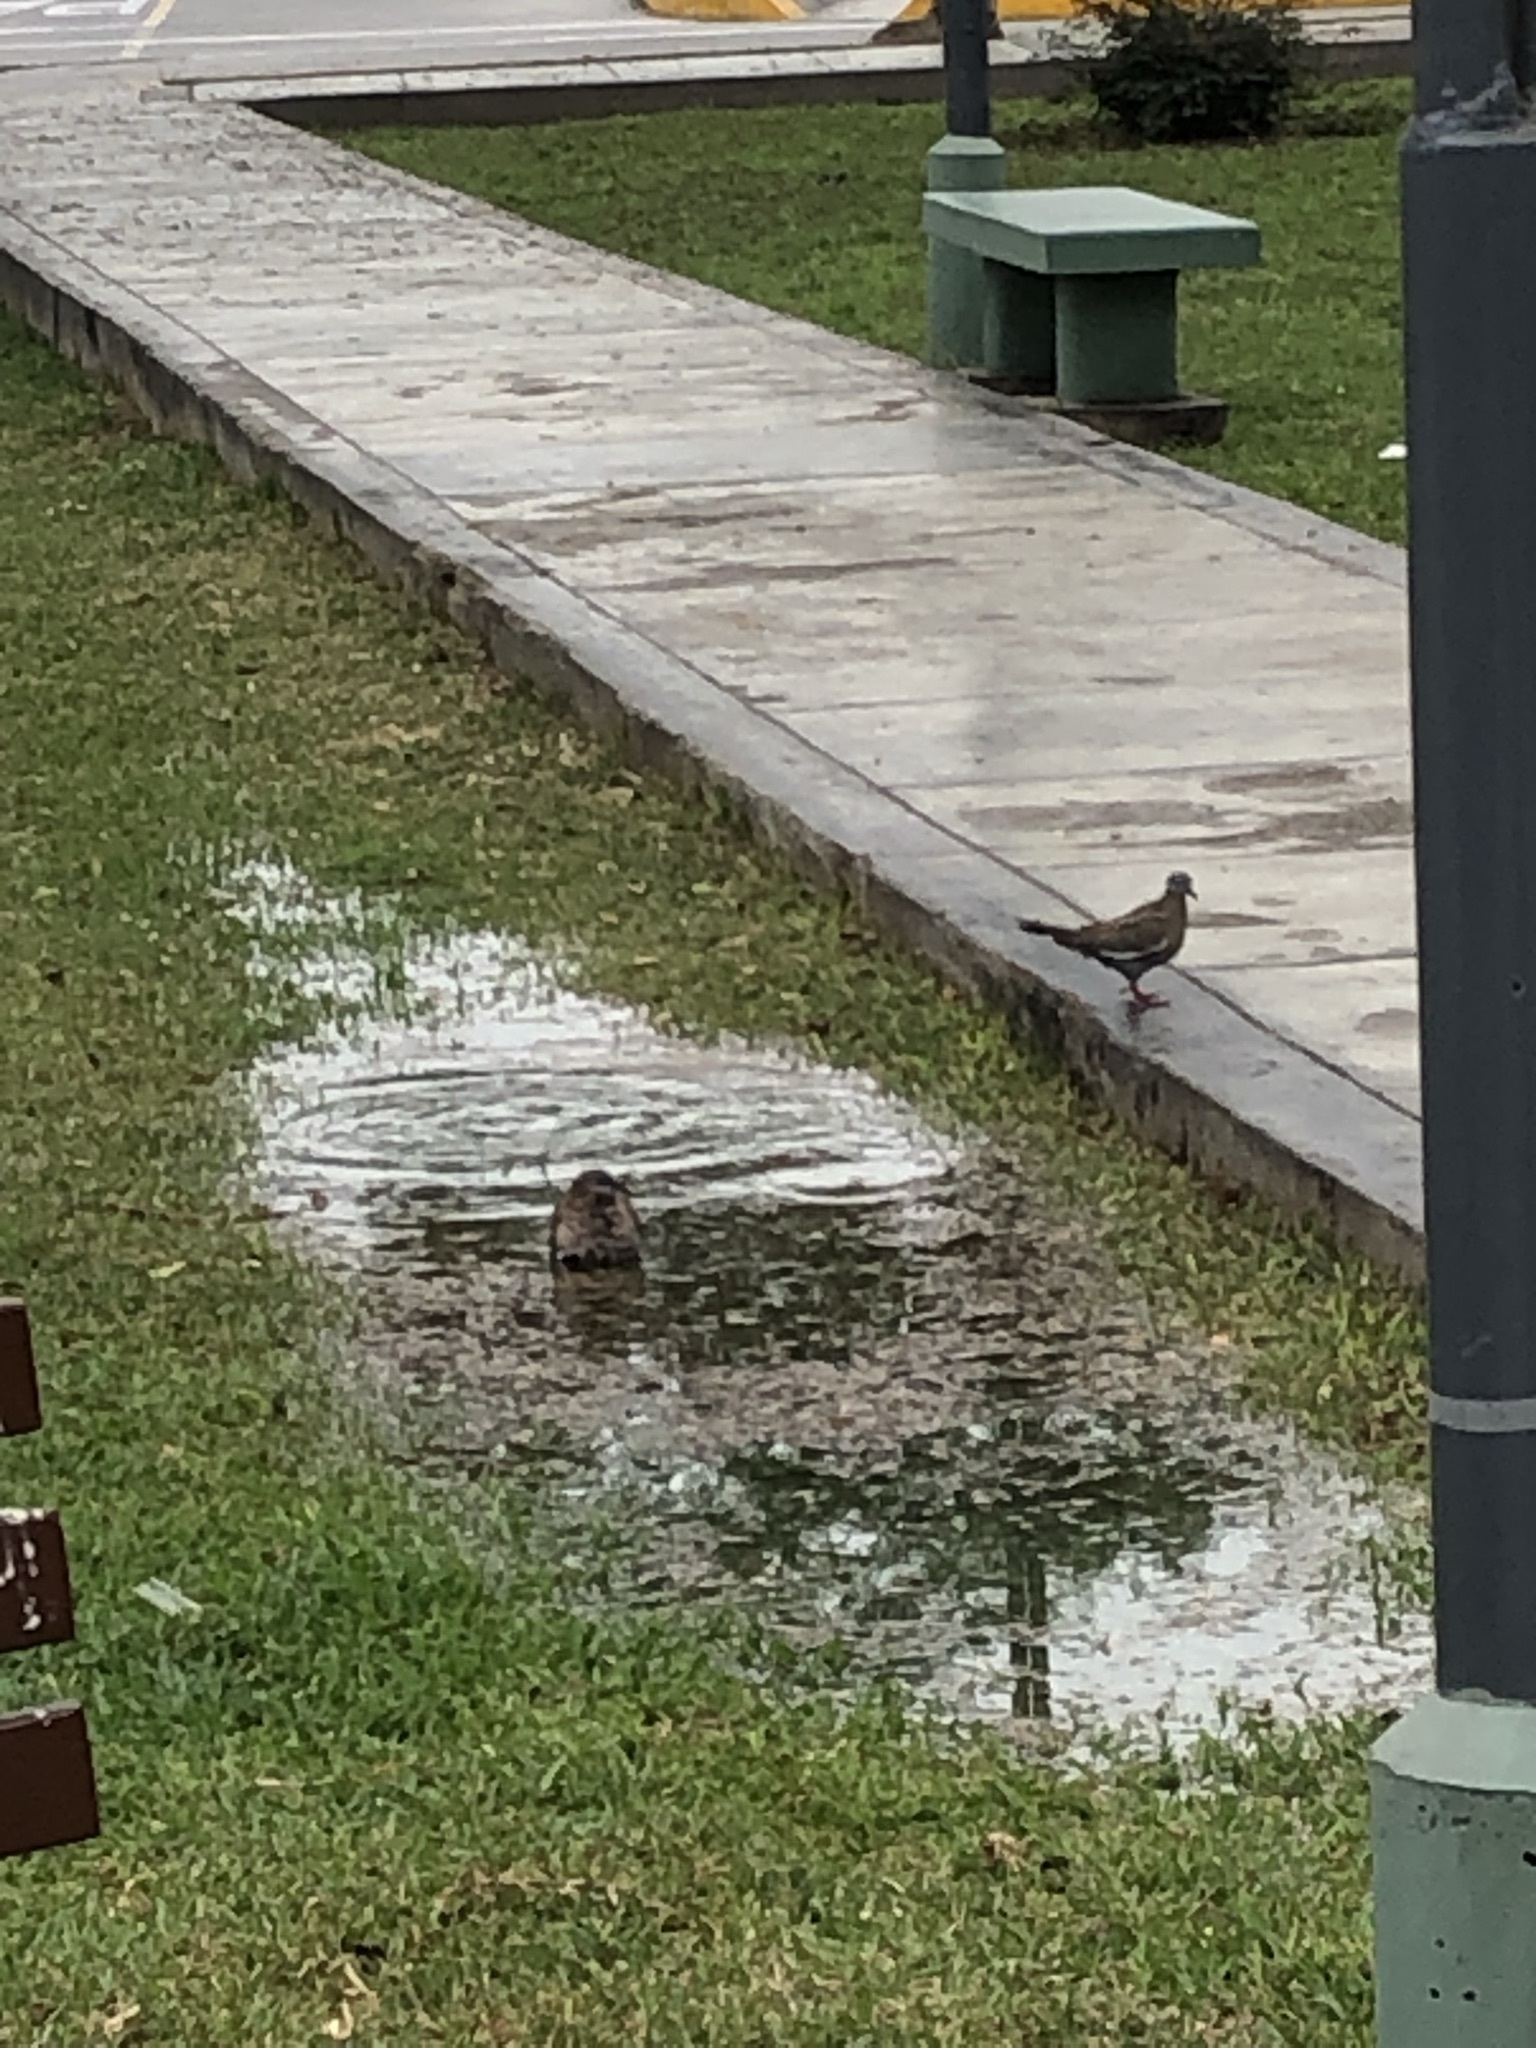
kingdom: Animalia
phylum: Chordata
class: Aves
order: Columbiformes
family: Columbidae
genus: Zenaida
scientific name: Zenaida meloda
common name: West peruvian dove
